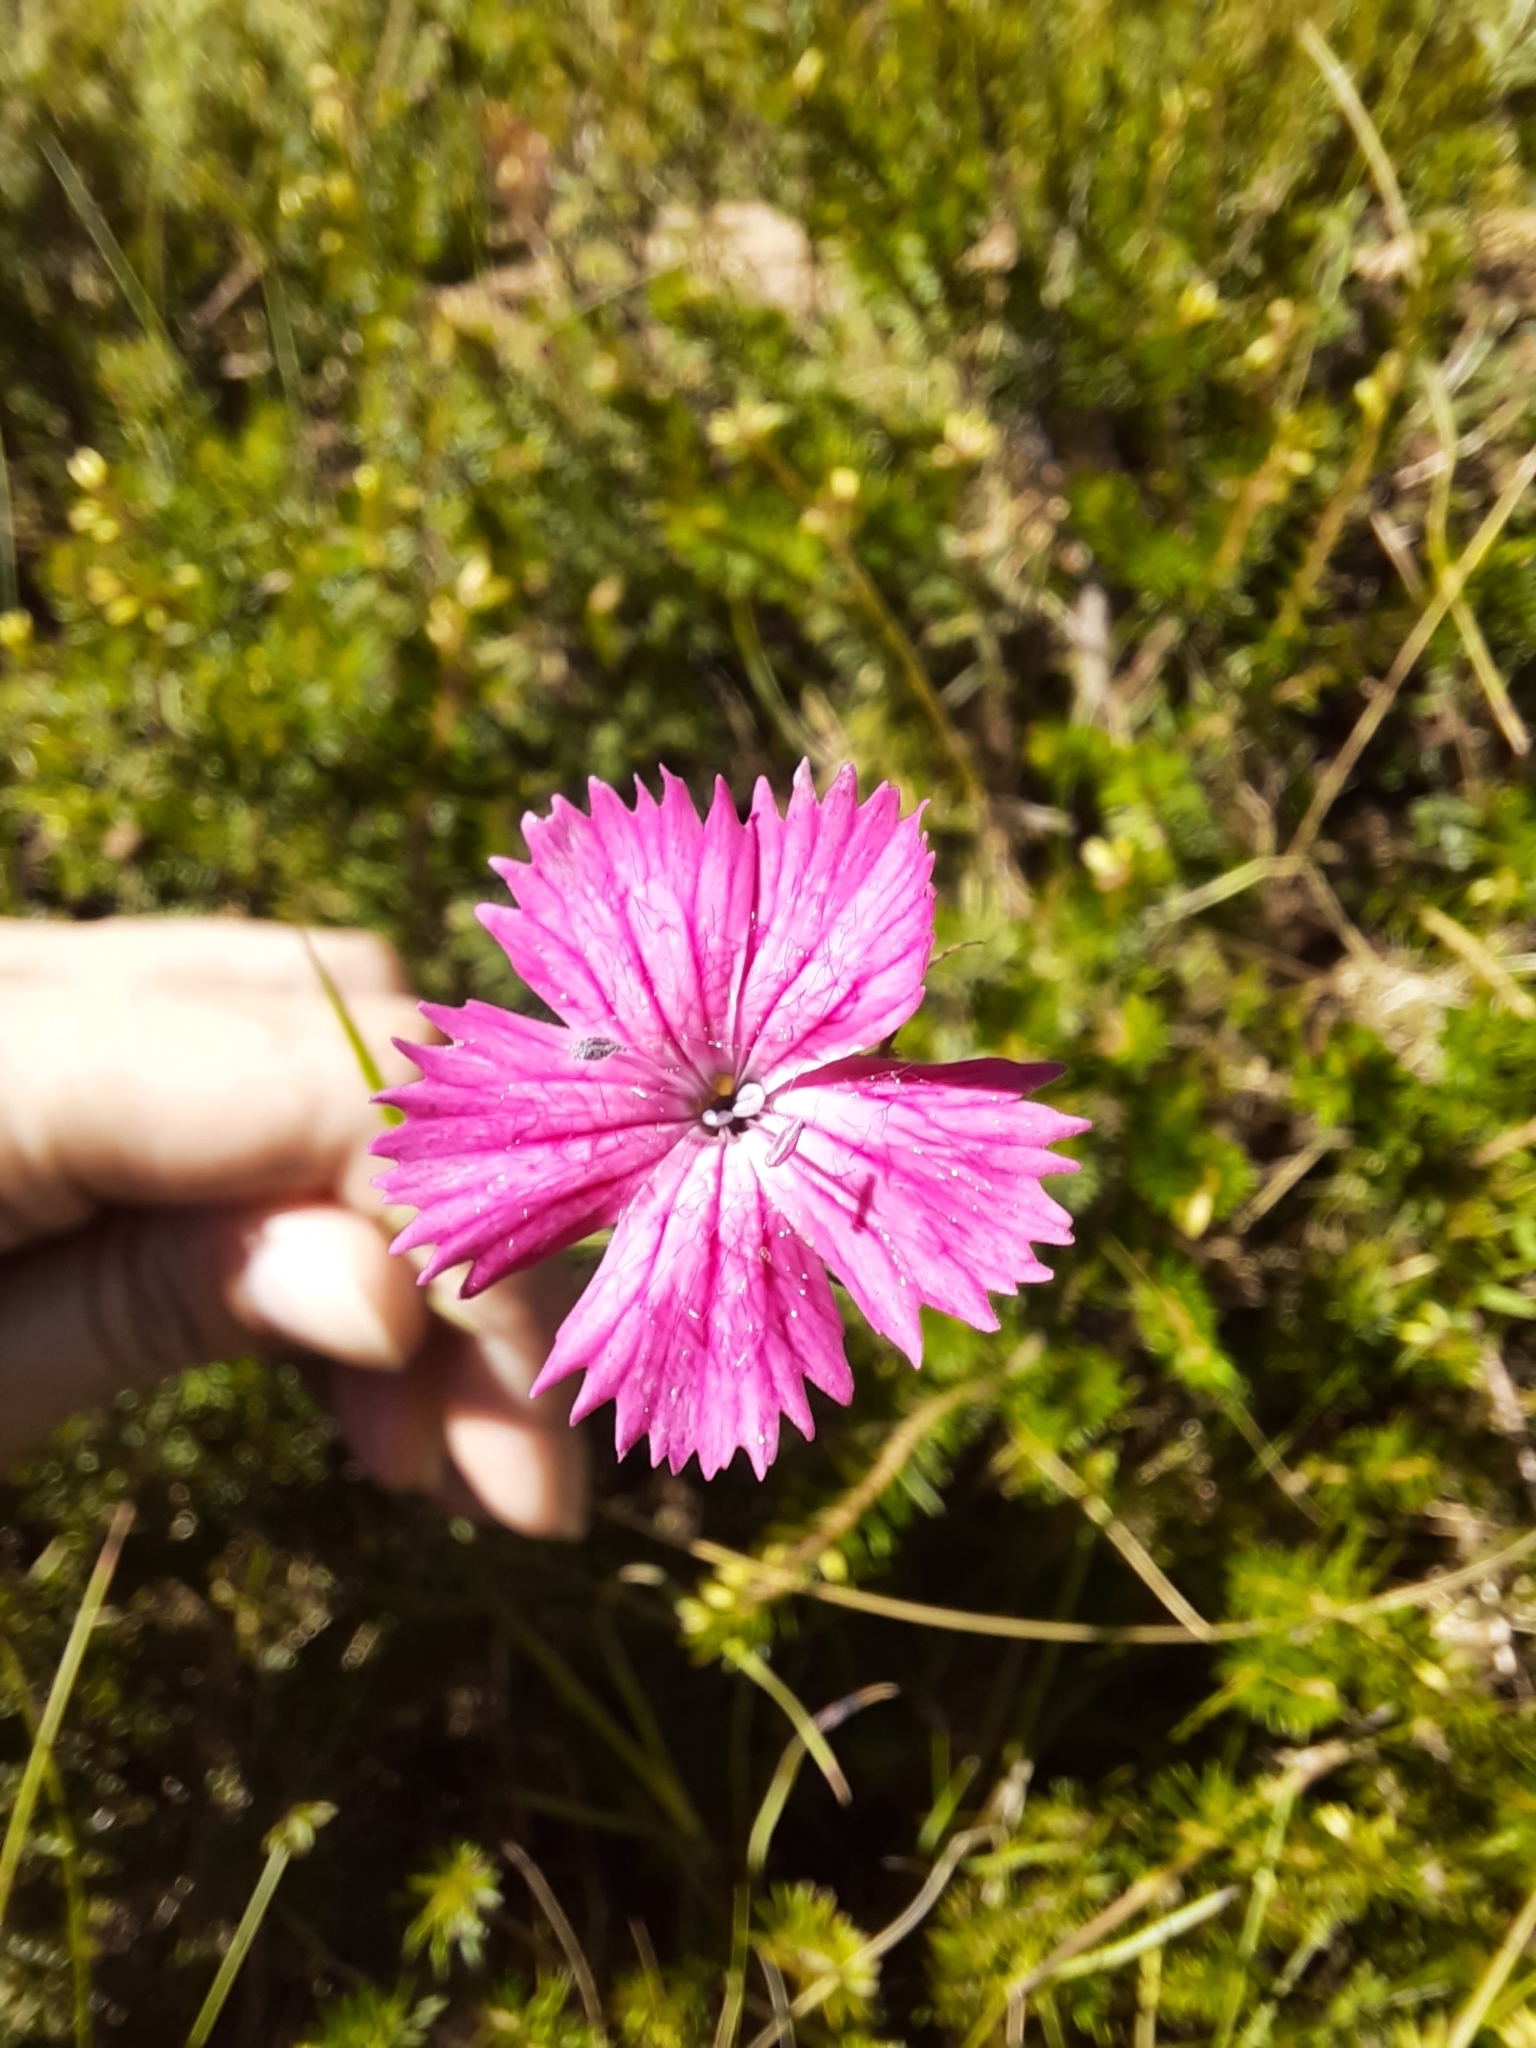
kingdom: Plantae
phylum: Tracheophyta
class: Magnoliopsida
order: Caryophyllales
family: Caryophyllaceae
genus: Dianthus
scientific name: Dianthus carthusianorum
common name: Carthusian pink
